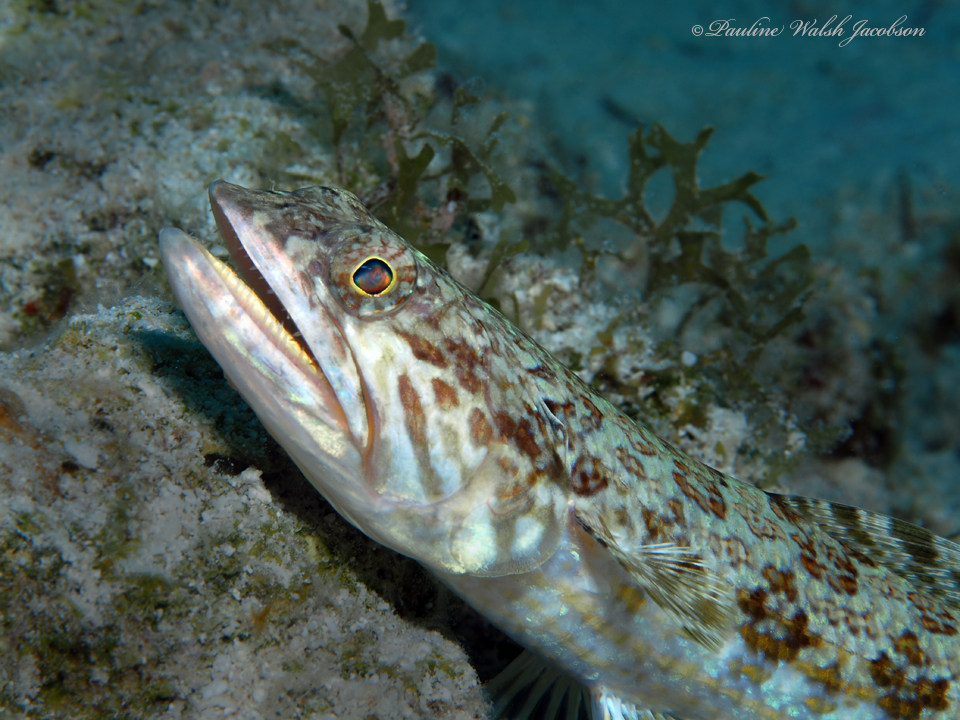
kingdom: Animalia
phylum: Chordata
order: Aulopiformes
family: Synodontidae
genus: Synodus
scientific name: Synodus intermedius
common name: Sand diver
